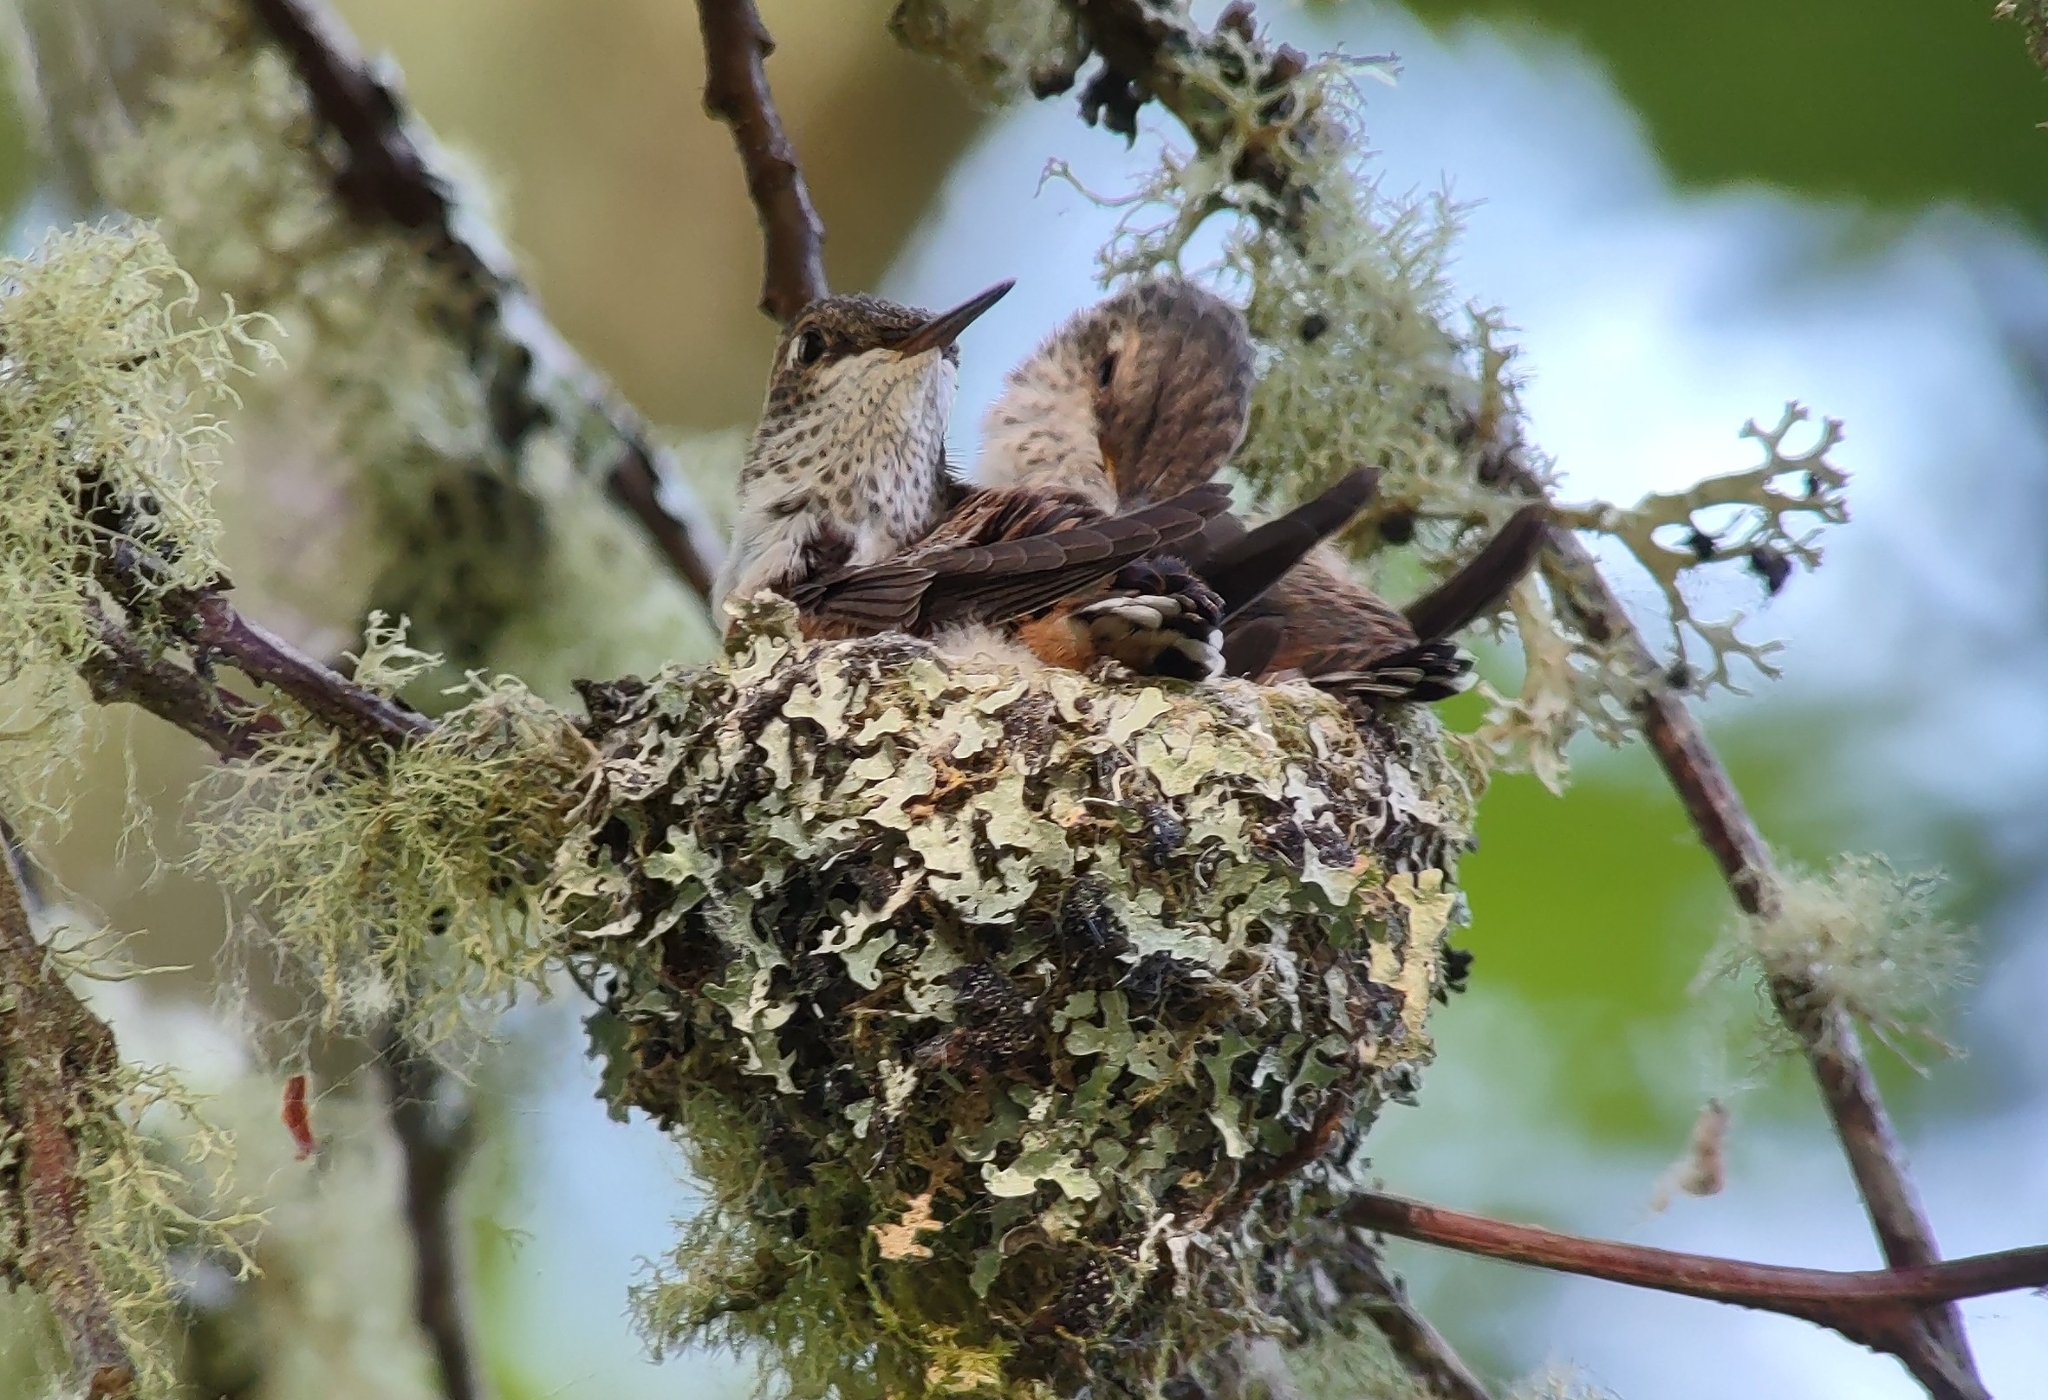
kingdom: Animalia
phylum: Chordata
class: Aves
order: Apodiformes
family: Trochilidae
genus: Selasphorus
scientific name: Selasphorus rufus
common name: Rufous hummingbird
